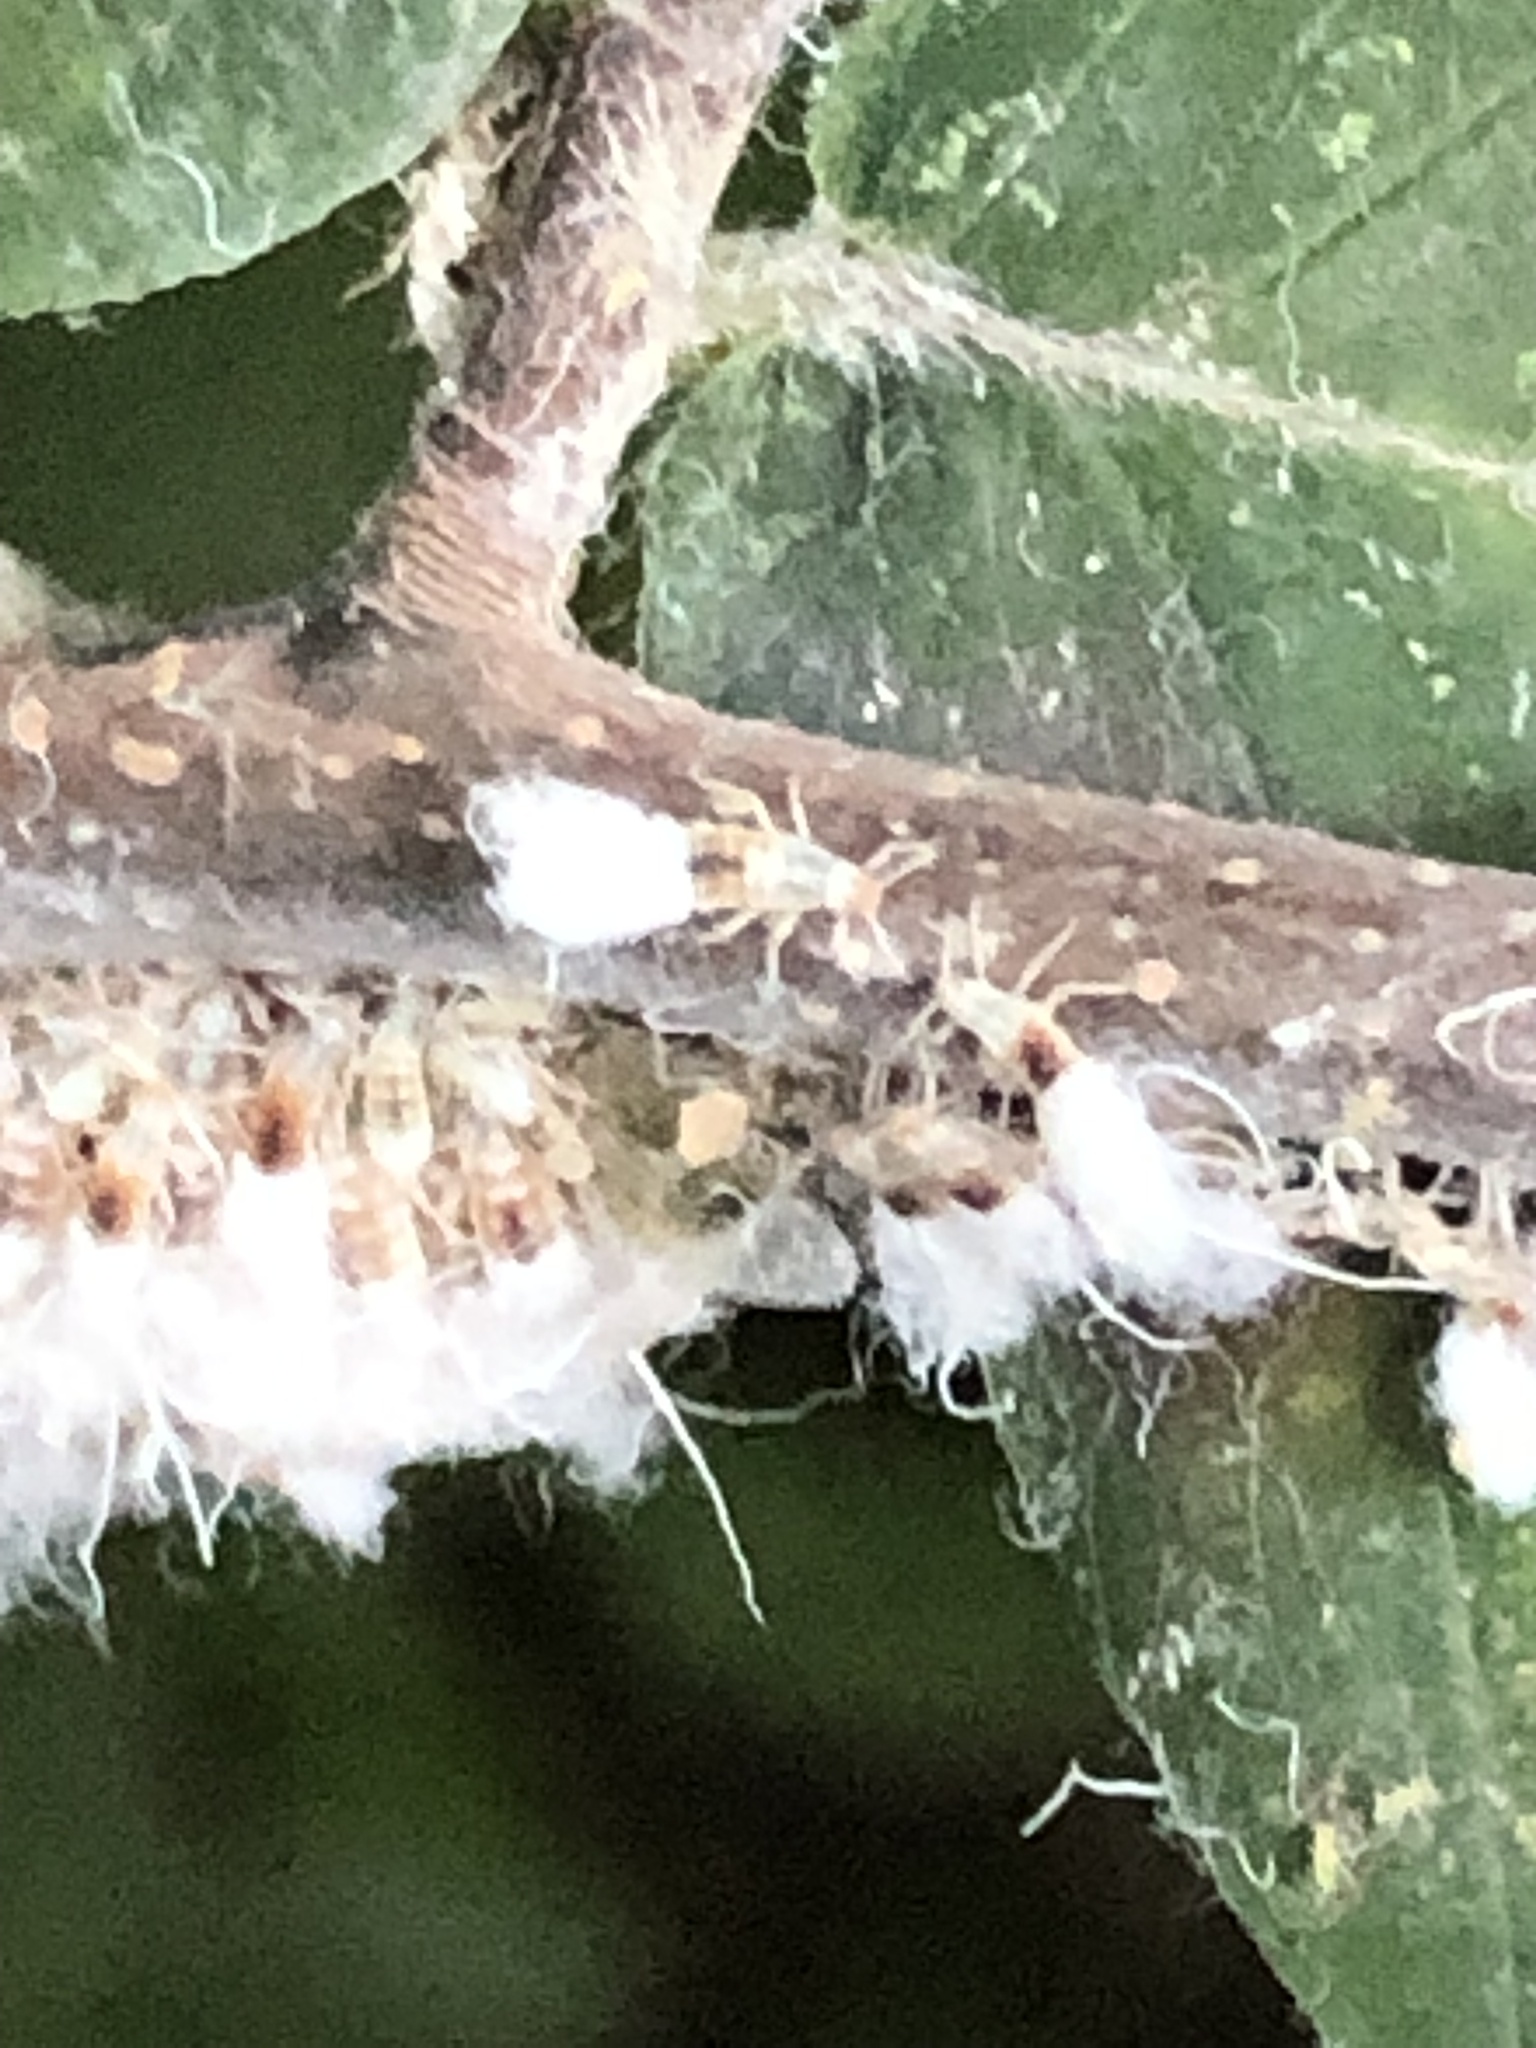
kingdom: Animalia
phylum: Arthropoda
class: Insecta
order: Hemiptera
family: Aphididae
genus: Grylloprociphilus
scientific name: Grylloprociphilus imbricator
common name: Beech blight aphid
